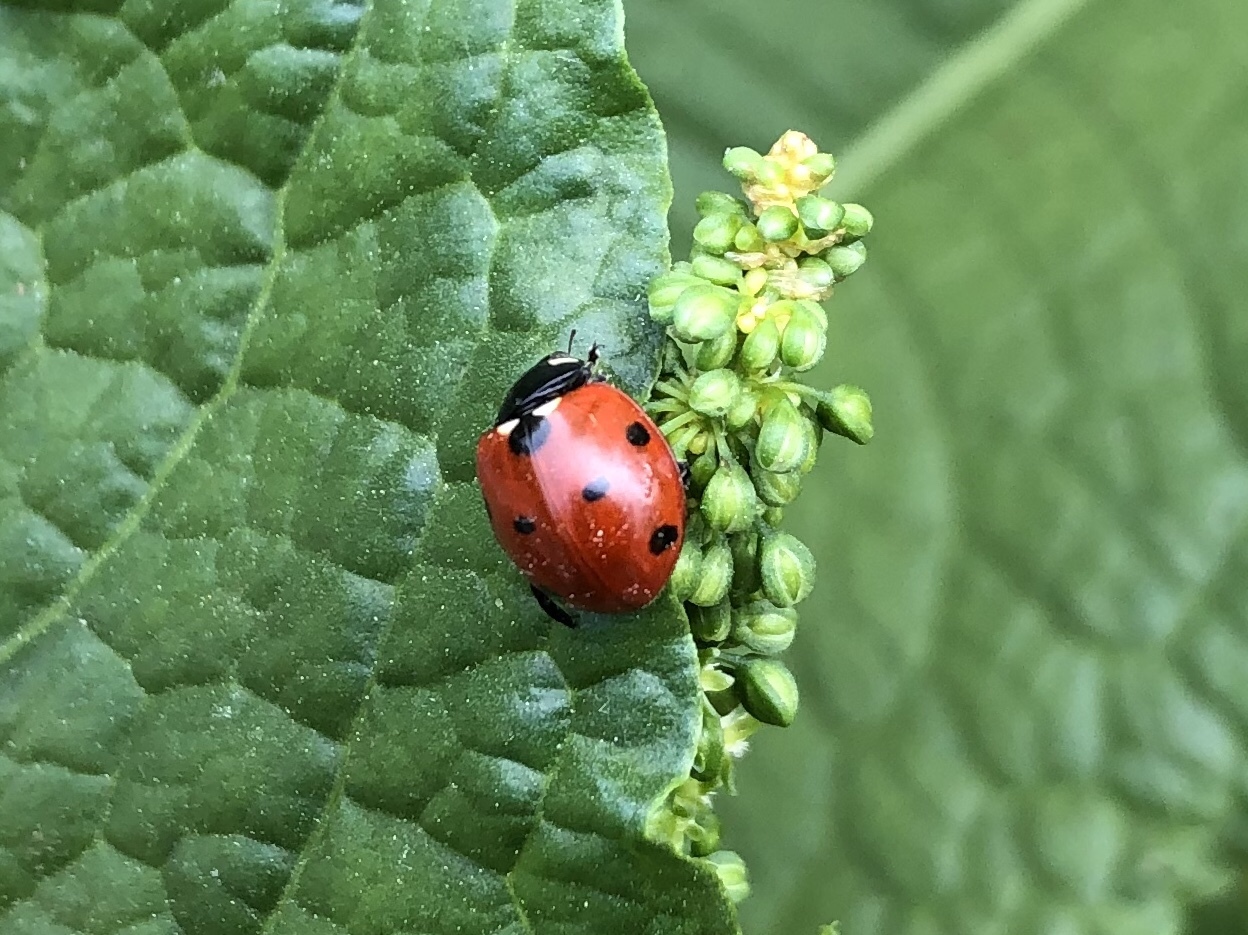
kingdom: Animalia
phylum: Arthropoda
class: Insecta
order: Coleoptera
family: Coccinellidae
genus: Coccinella
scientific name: Coccinella septempunctata
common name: Sevenspotted lady beetle
